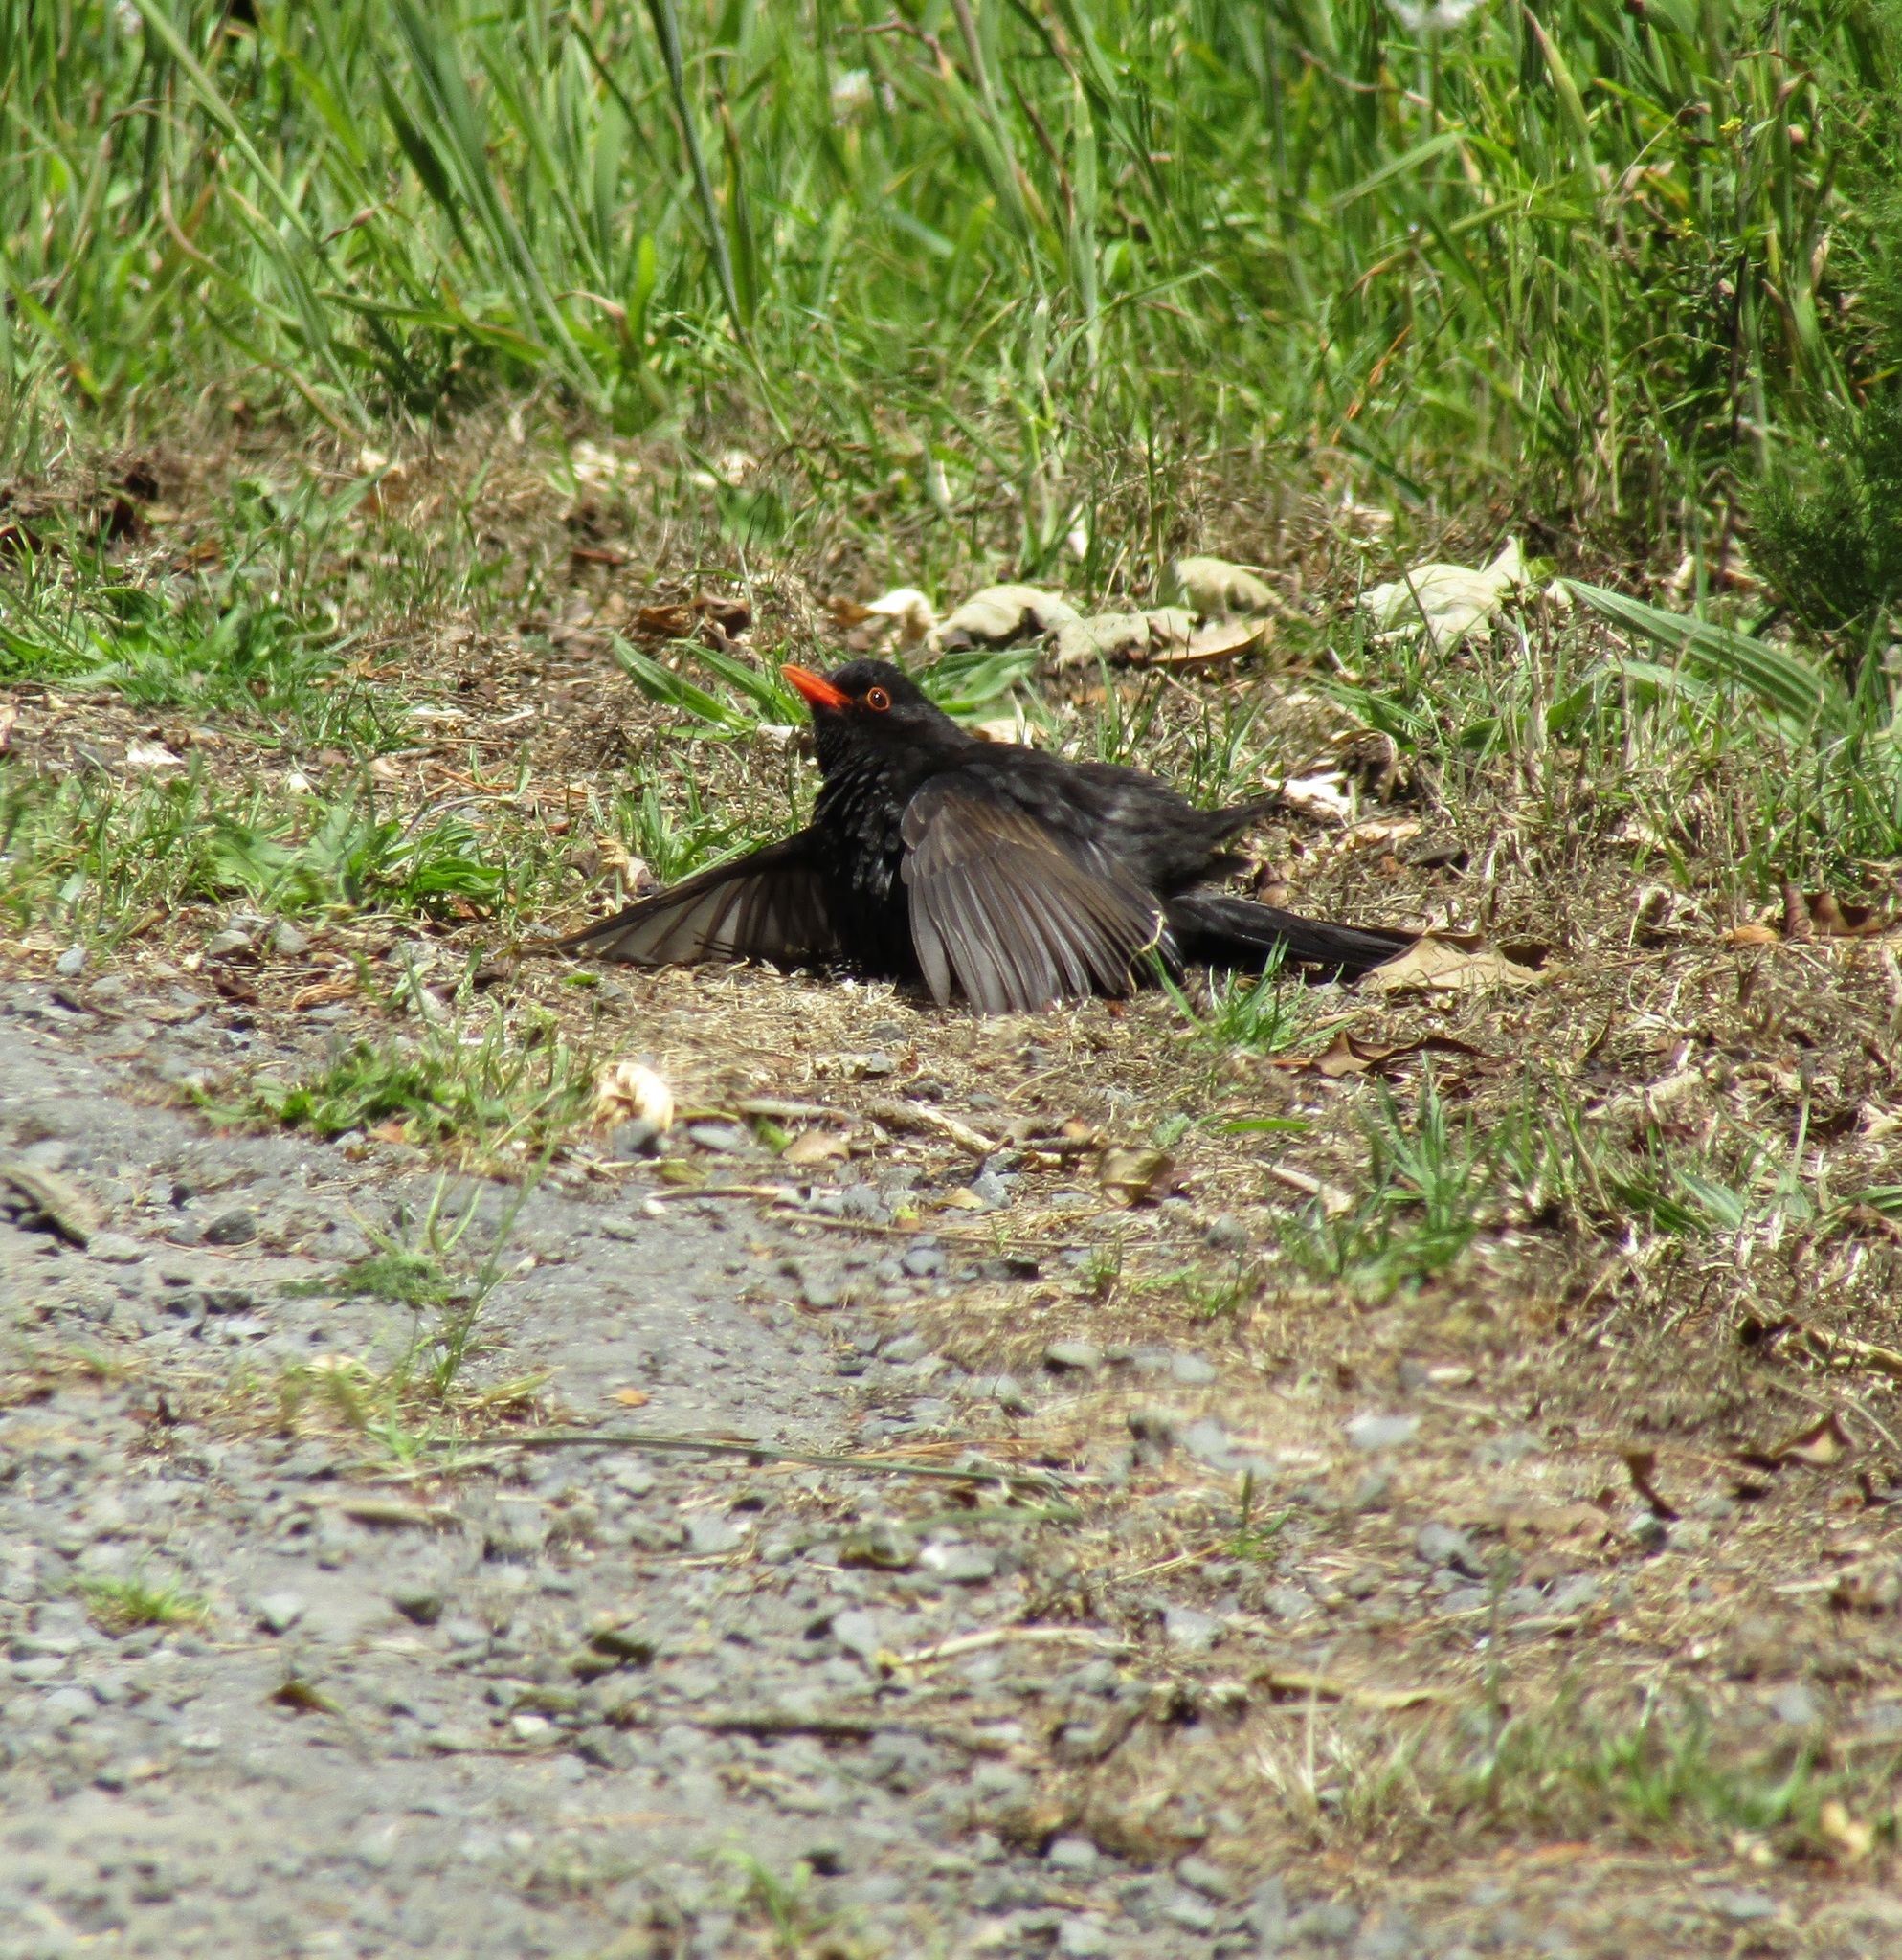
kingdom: Animalia
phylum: Chordata
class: Aves
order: Passeriformes
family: Turdidae
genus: Turdus
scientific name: Turdus merula
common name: Common blackbird
